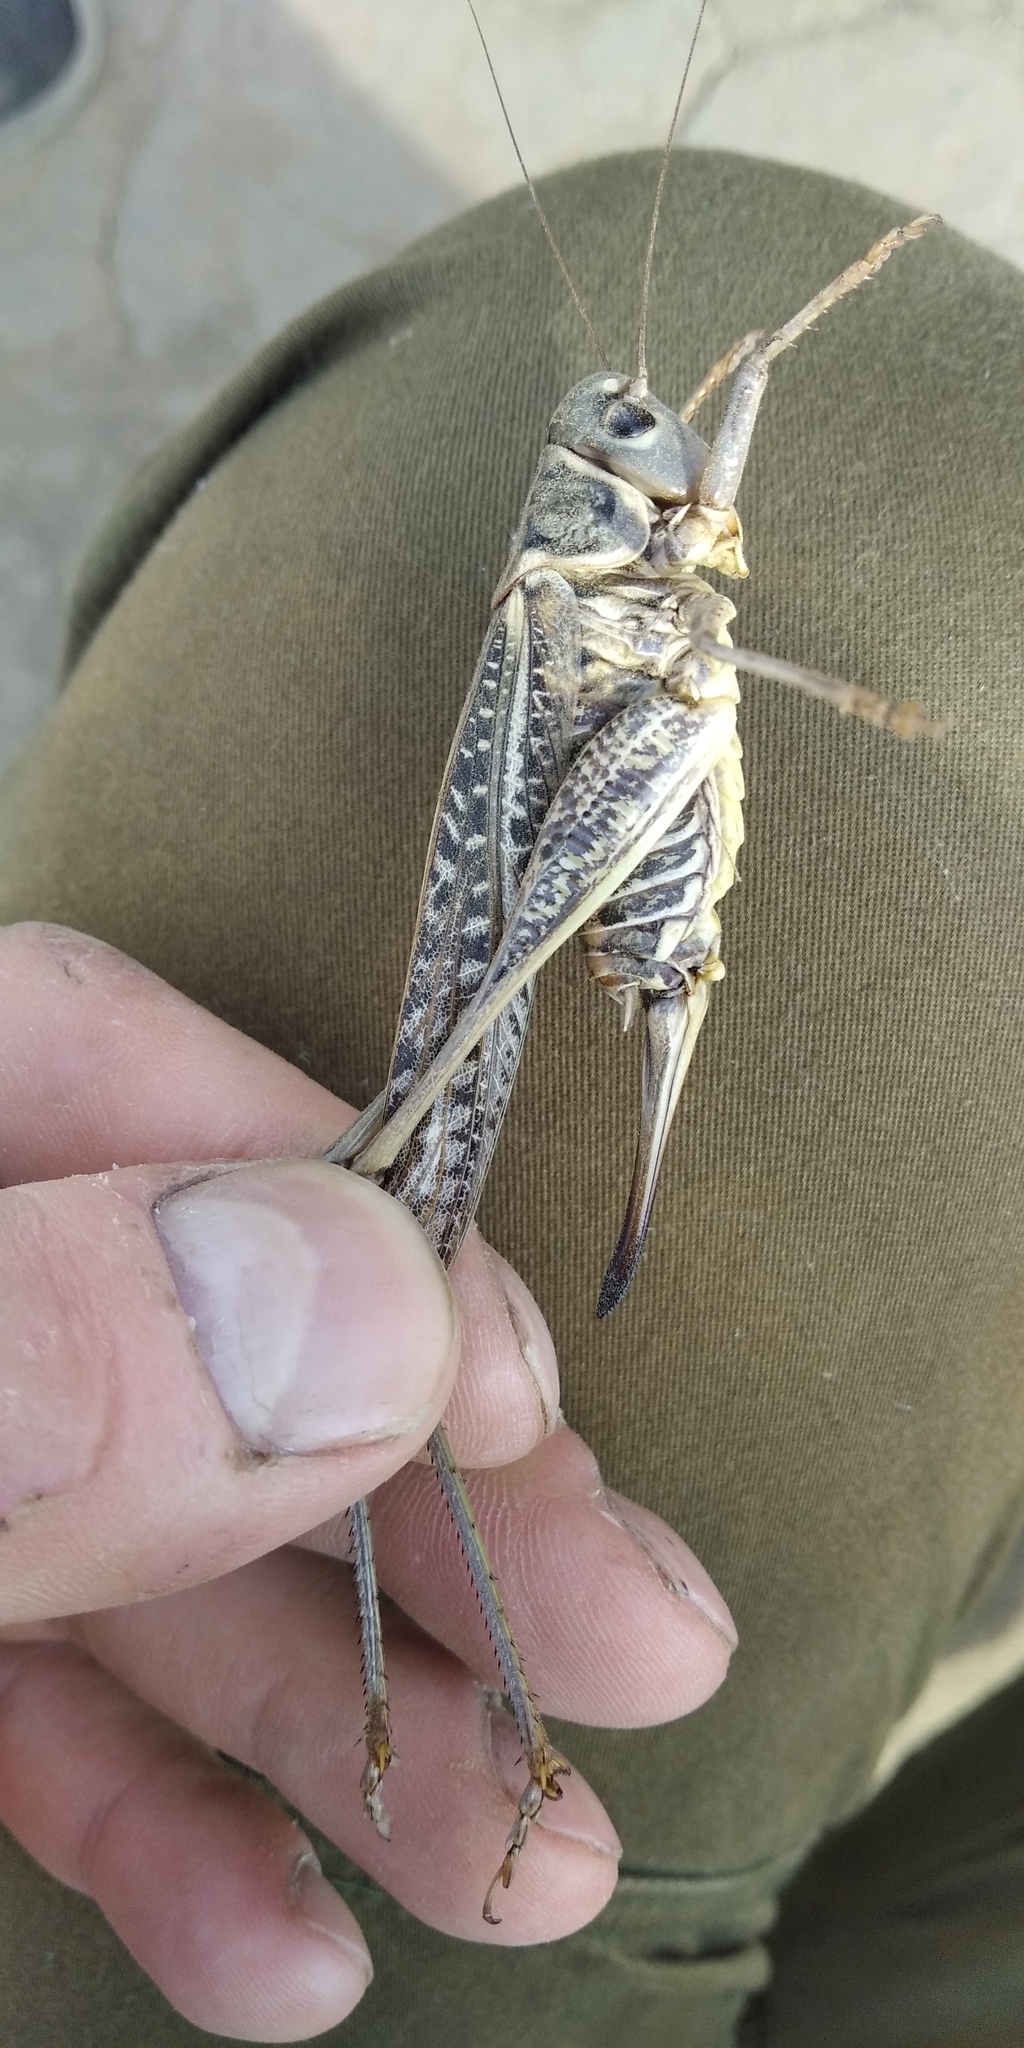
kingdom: Animalia
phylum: Arthropoda
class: Insecta
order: Orthoptera
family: Tettigoniidae
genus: Decticus
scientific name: Decticus albifrons
